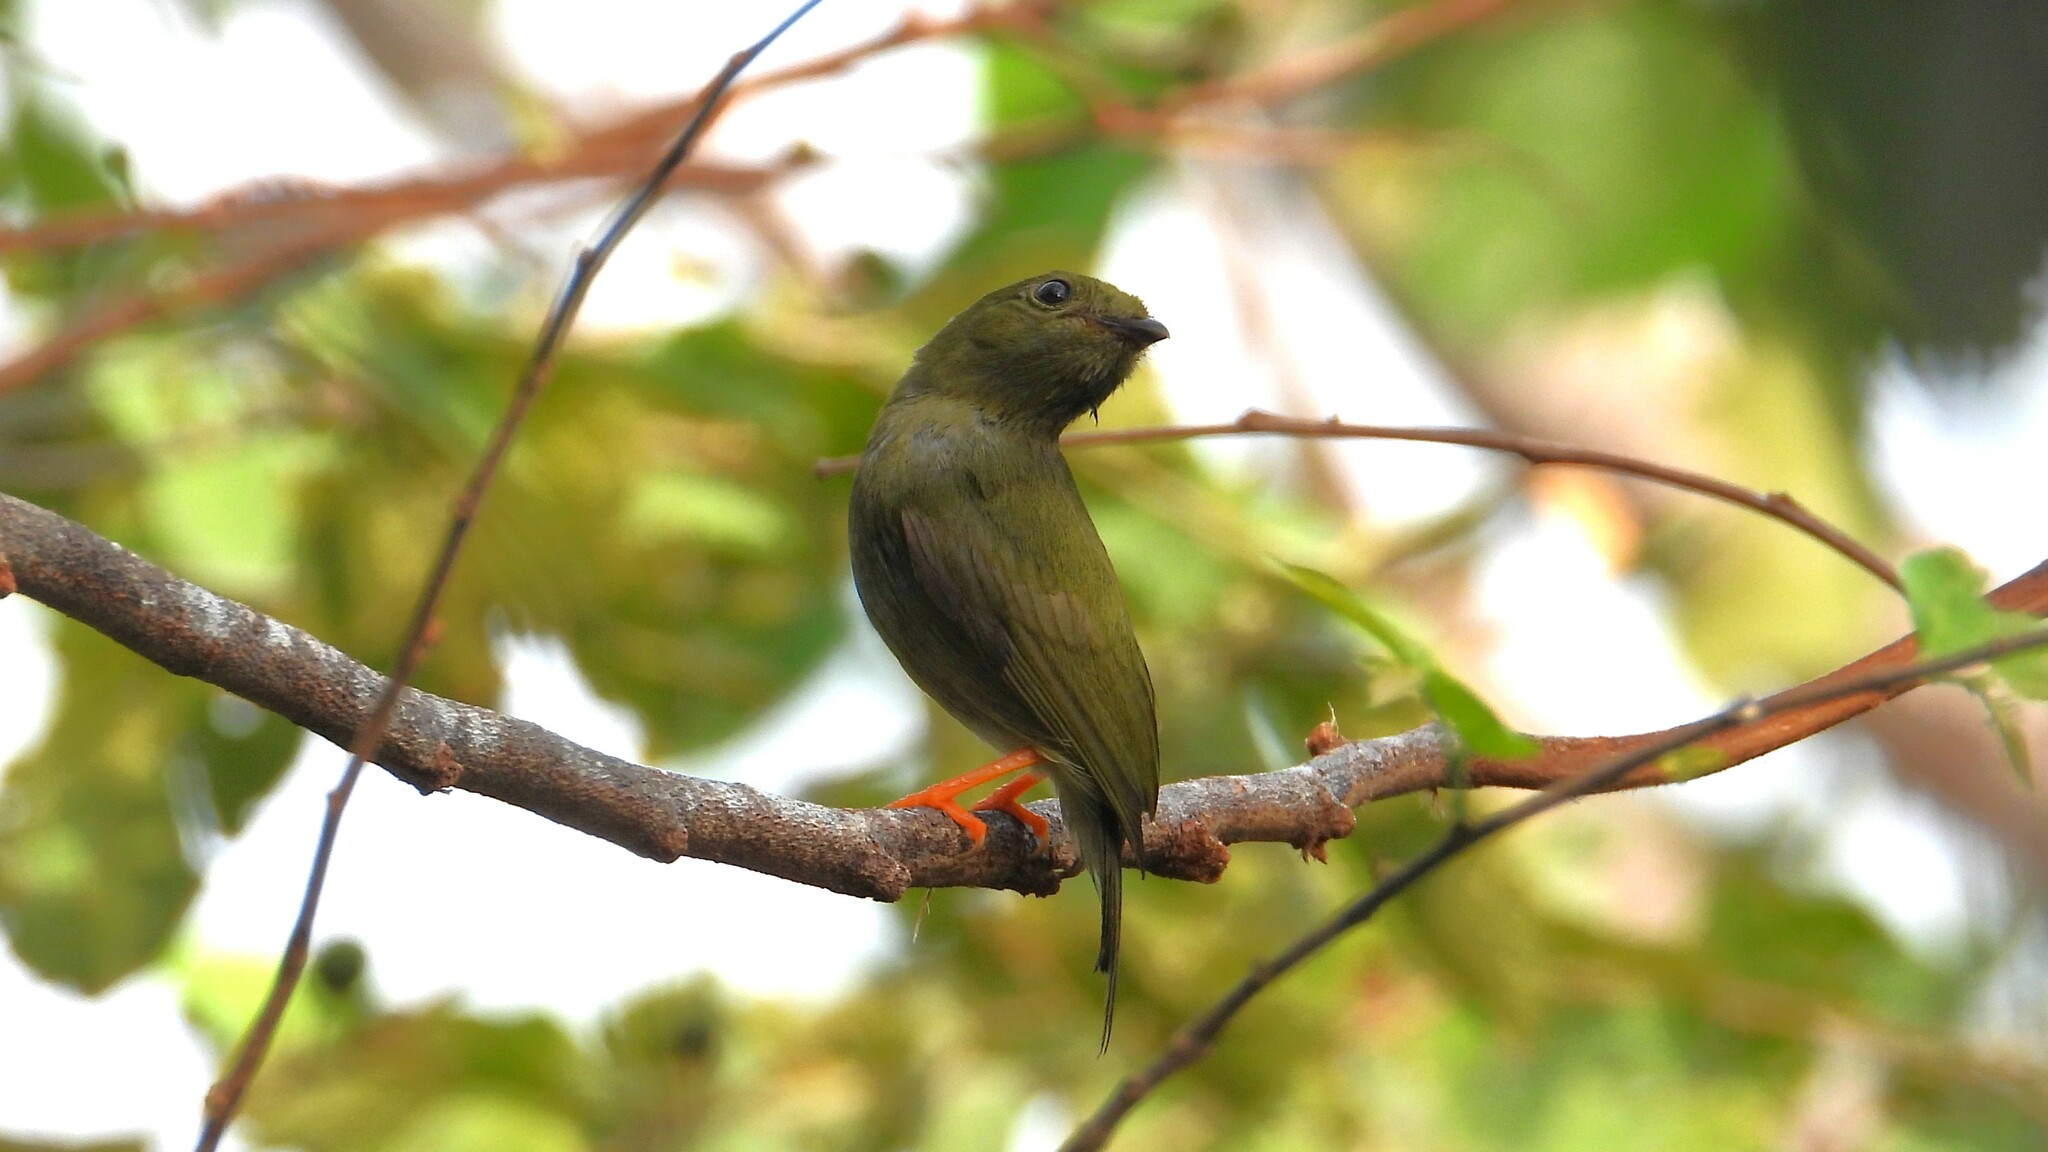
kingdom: Animalia
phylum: Chordata
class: Aves
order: Passeriformes
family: Pipridae
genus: Chiroxiphia
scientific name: Chiroxiphia linearis
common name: Long-tailed manakin
